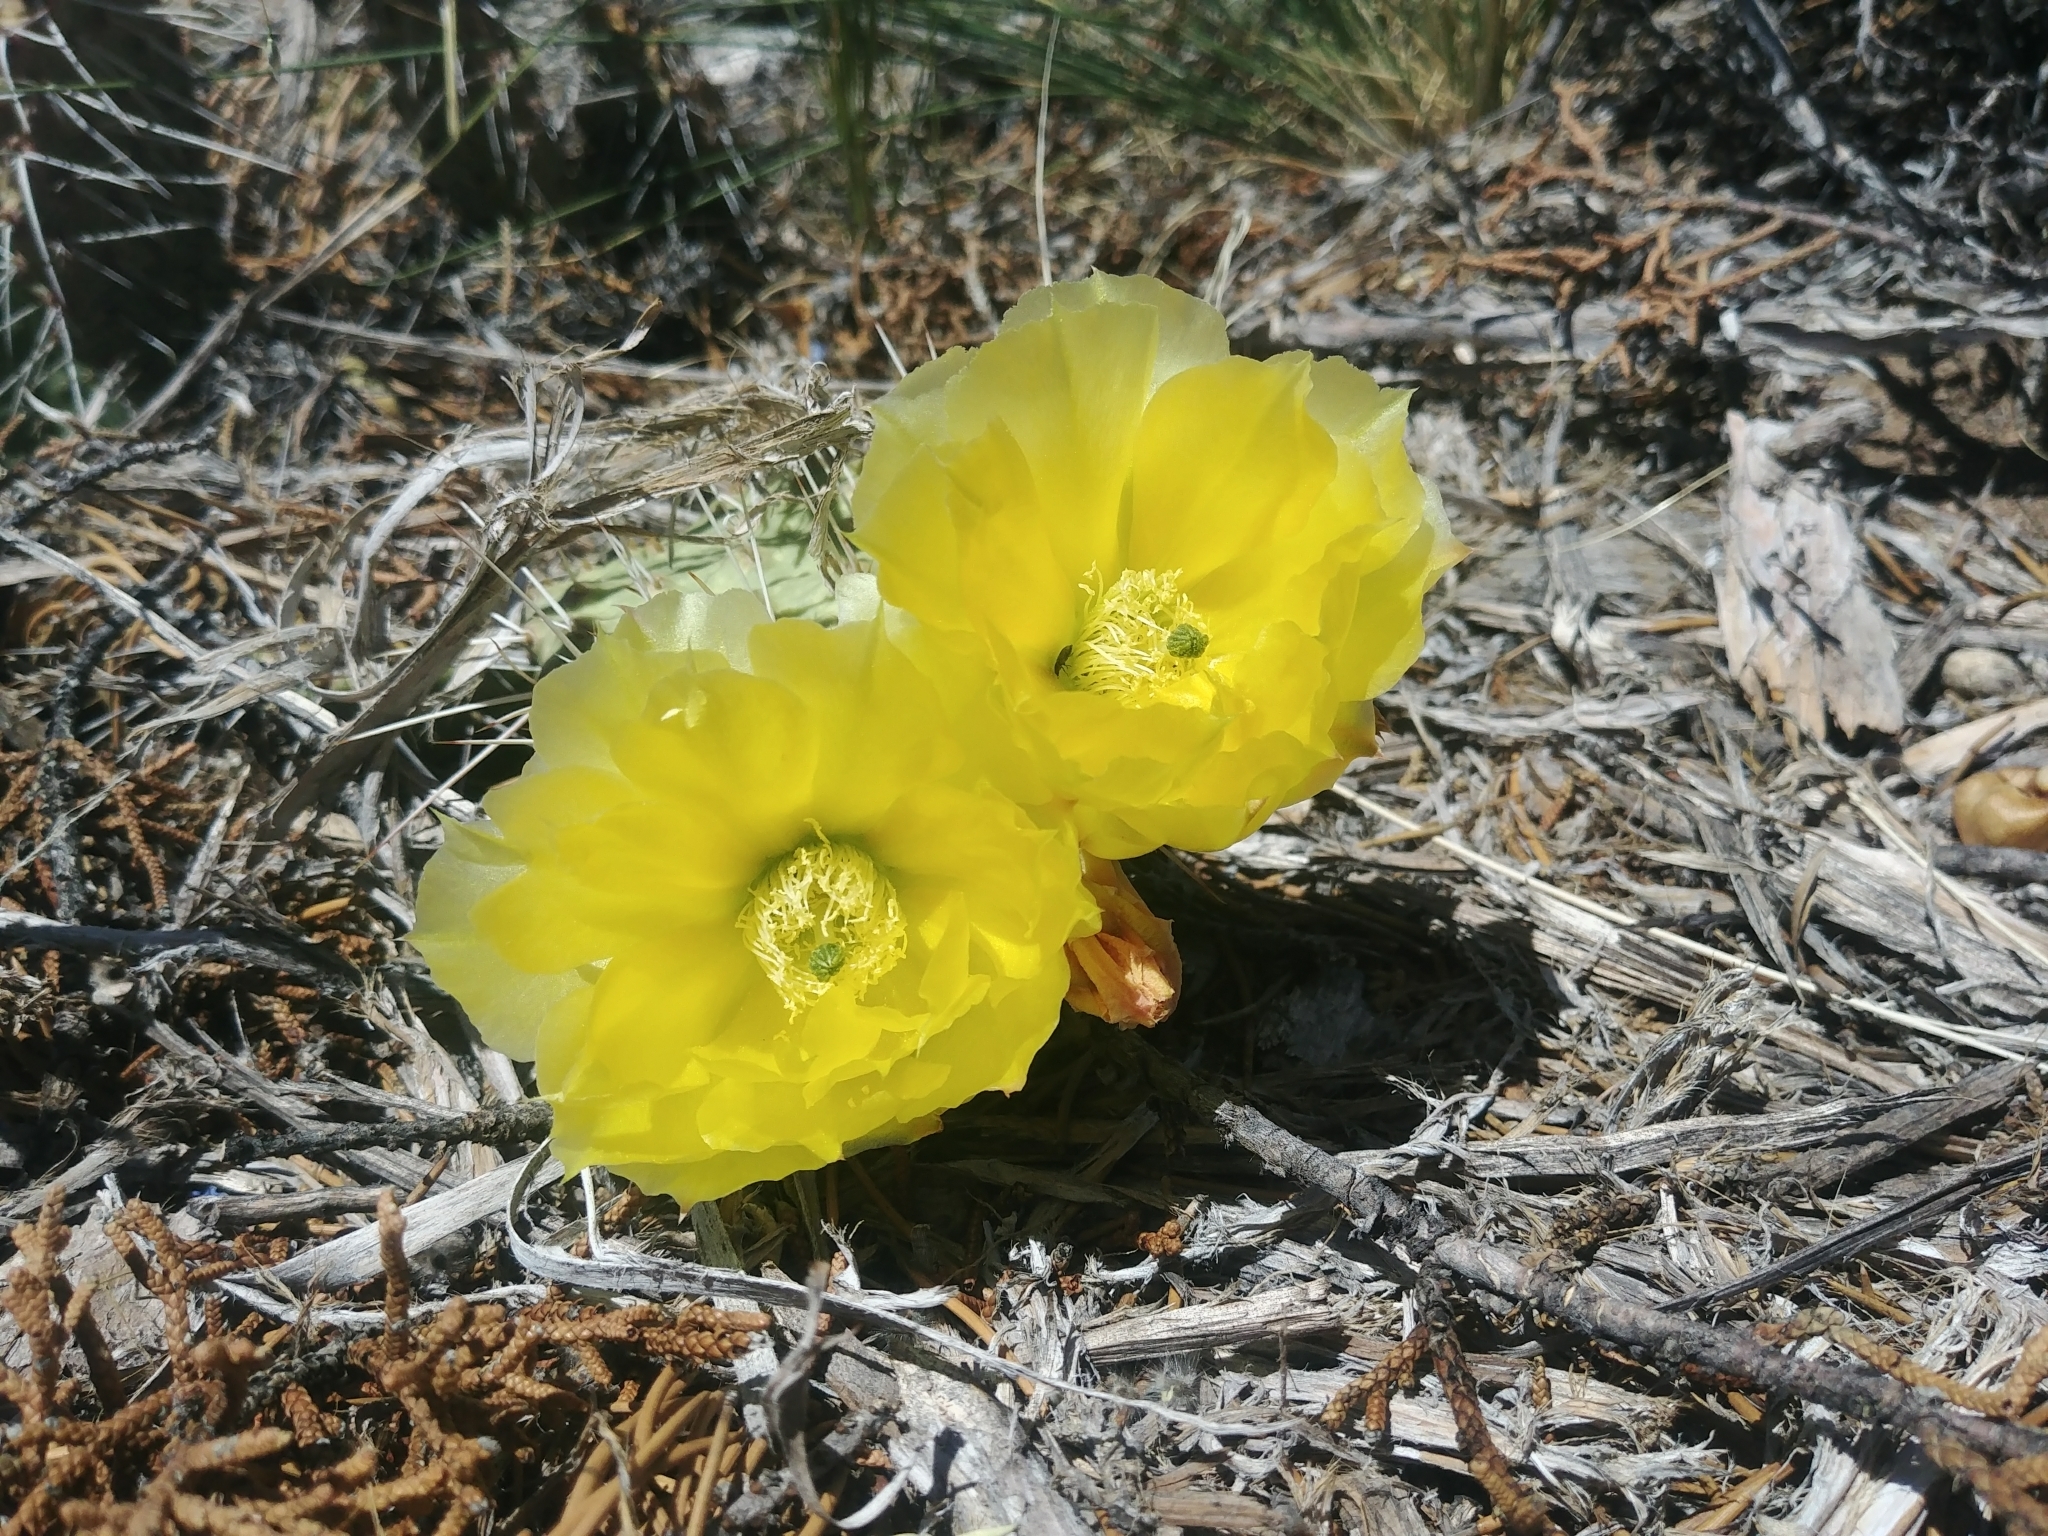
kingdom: Plantae
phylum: Tracheophyta
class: Magnoliopsida
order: Caryophyllales
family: Cactaceae
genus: Opuntia
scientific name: Opuntia polyacantha
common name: Plains prickly-pear
